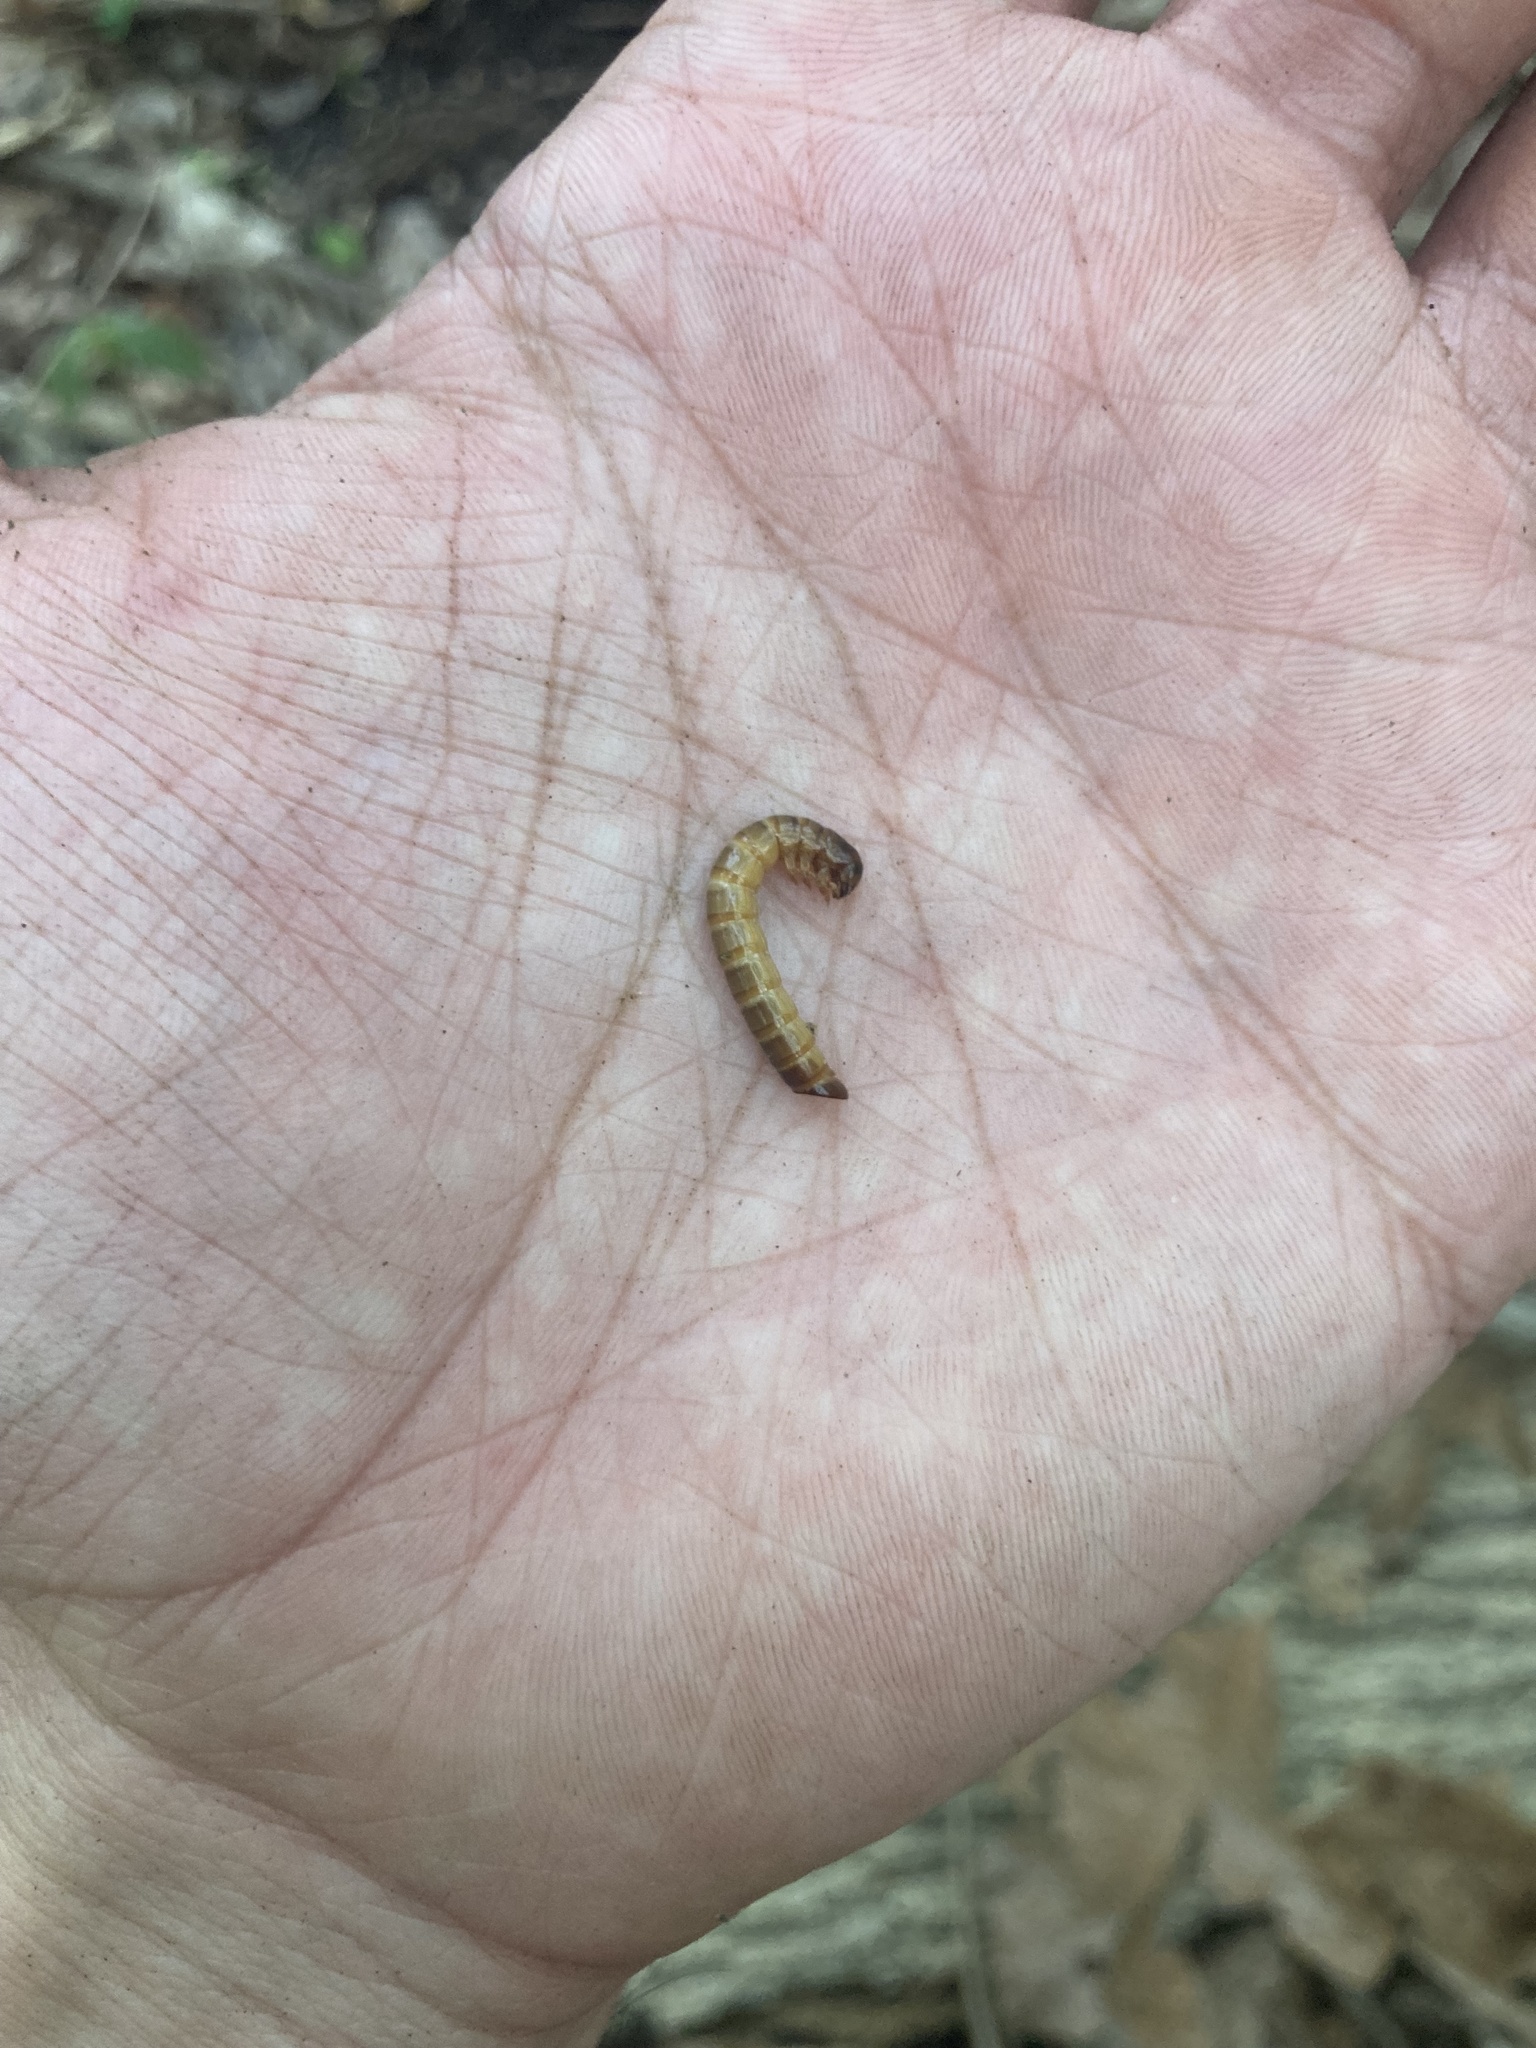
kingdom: Animalia
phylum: Arthropoda
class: Insecta
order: Coleoptera
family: Tenebrionidae
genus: Meracantha
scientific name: Meracantha contracta
